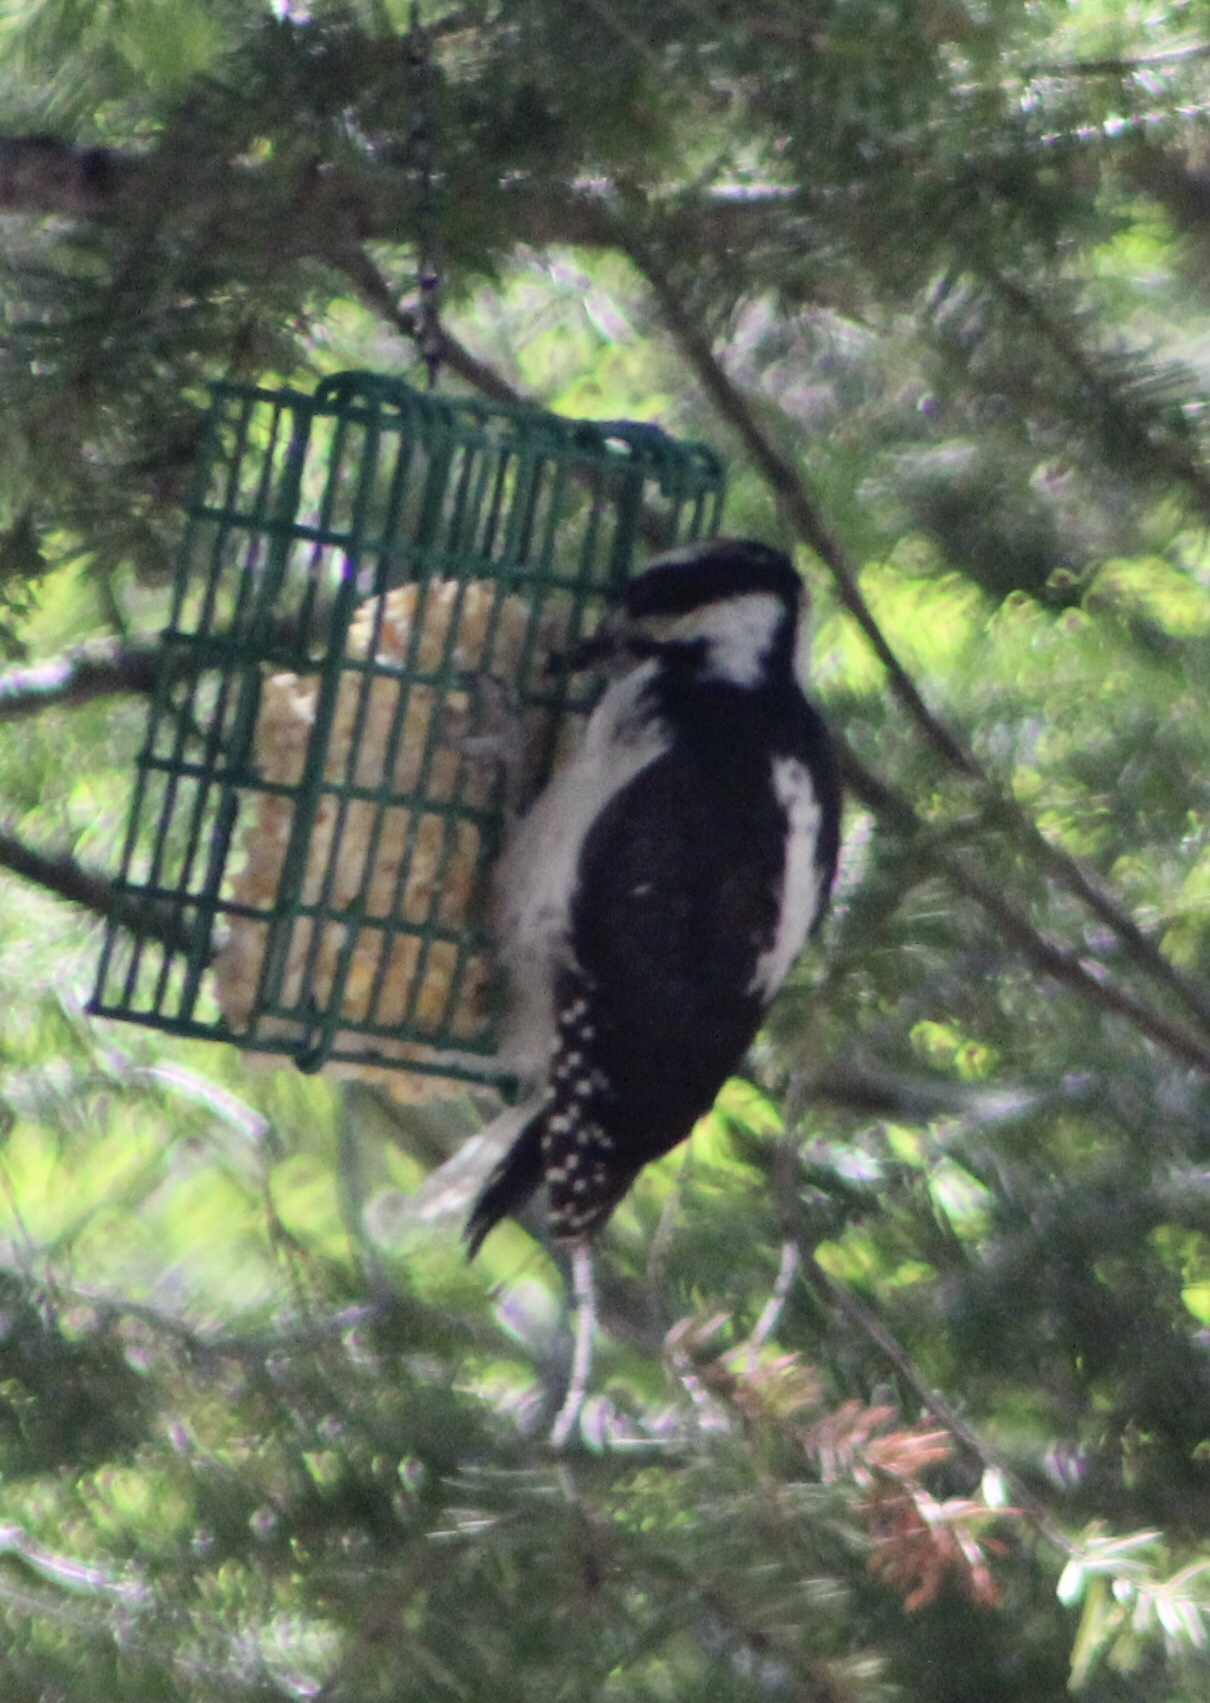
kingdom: Animalia
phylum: Chordata
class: Aves
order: Piciformes
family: Picidae
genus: Leuconotopicus
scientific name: Leuconotopicus villosus
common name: Hairy woodpecker
